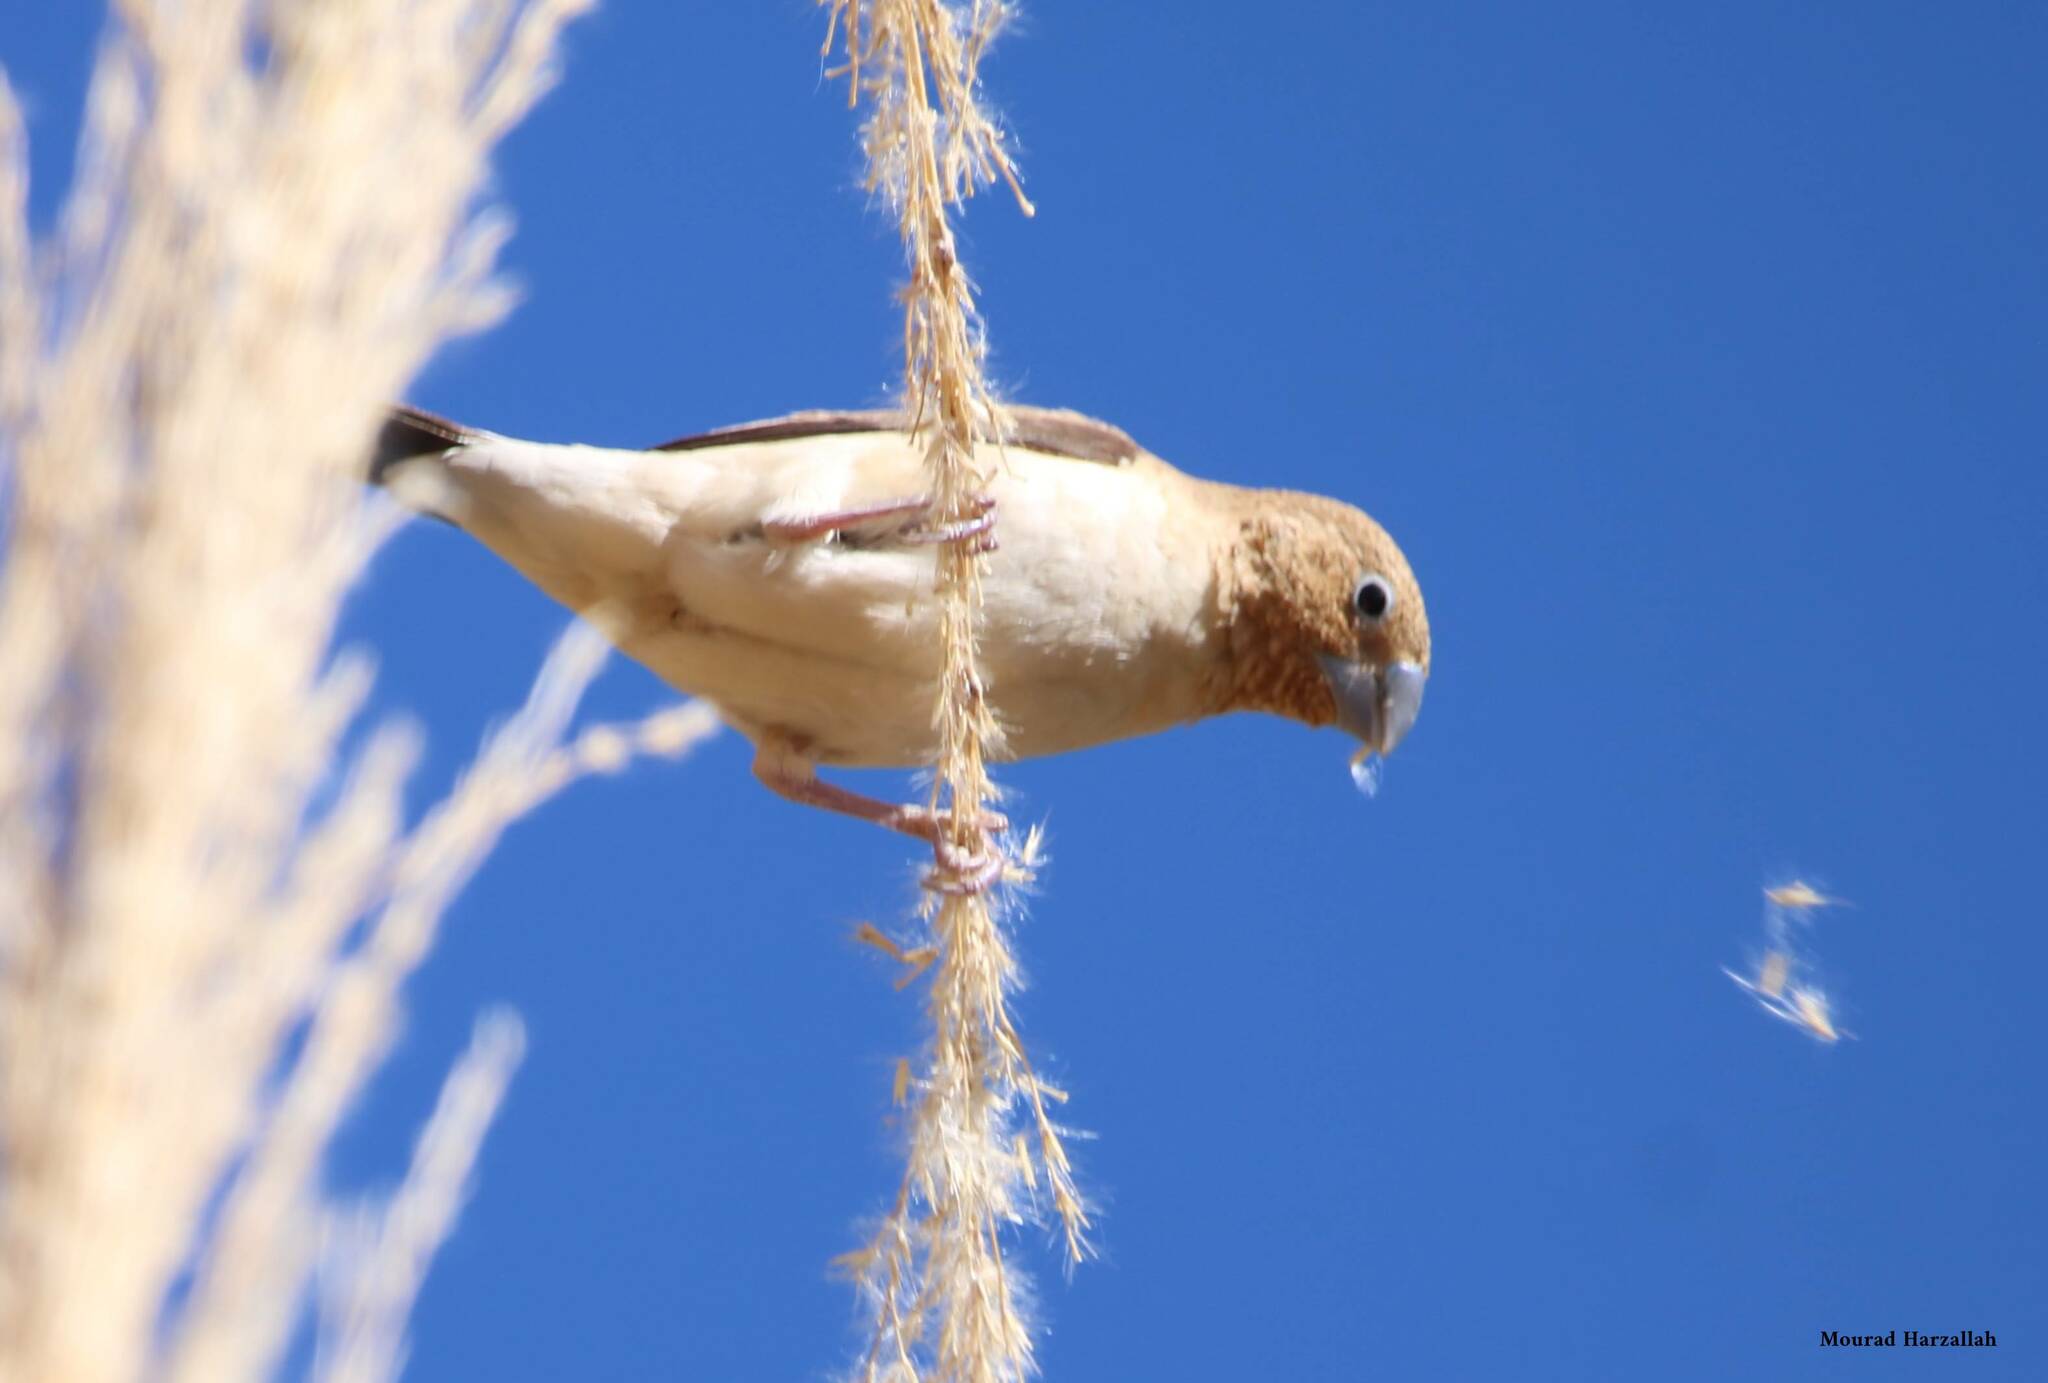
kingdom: Animalia
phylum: Chordata
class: Aves
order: Passeriformes
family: Estrildidae
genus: Euodice
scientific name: Euodice cantans
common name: African silverbill
